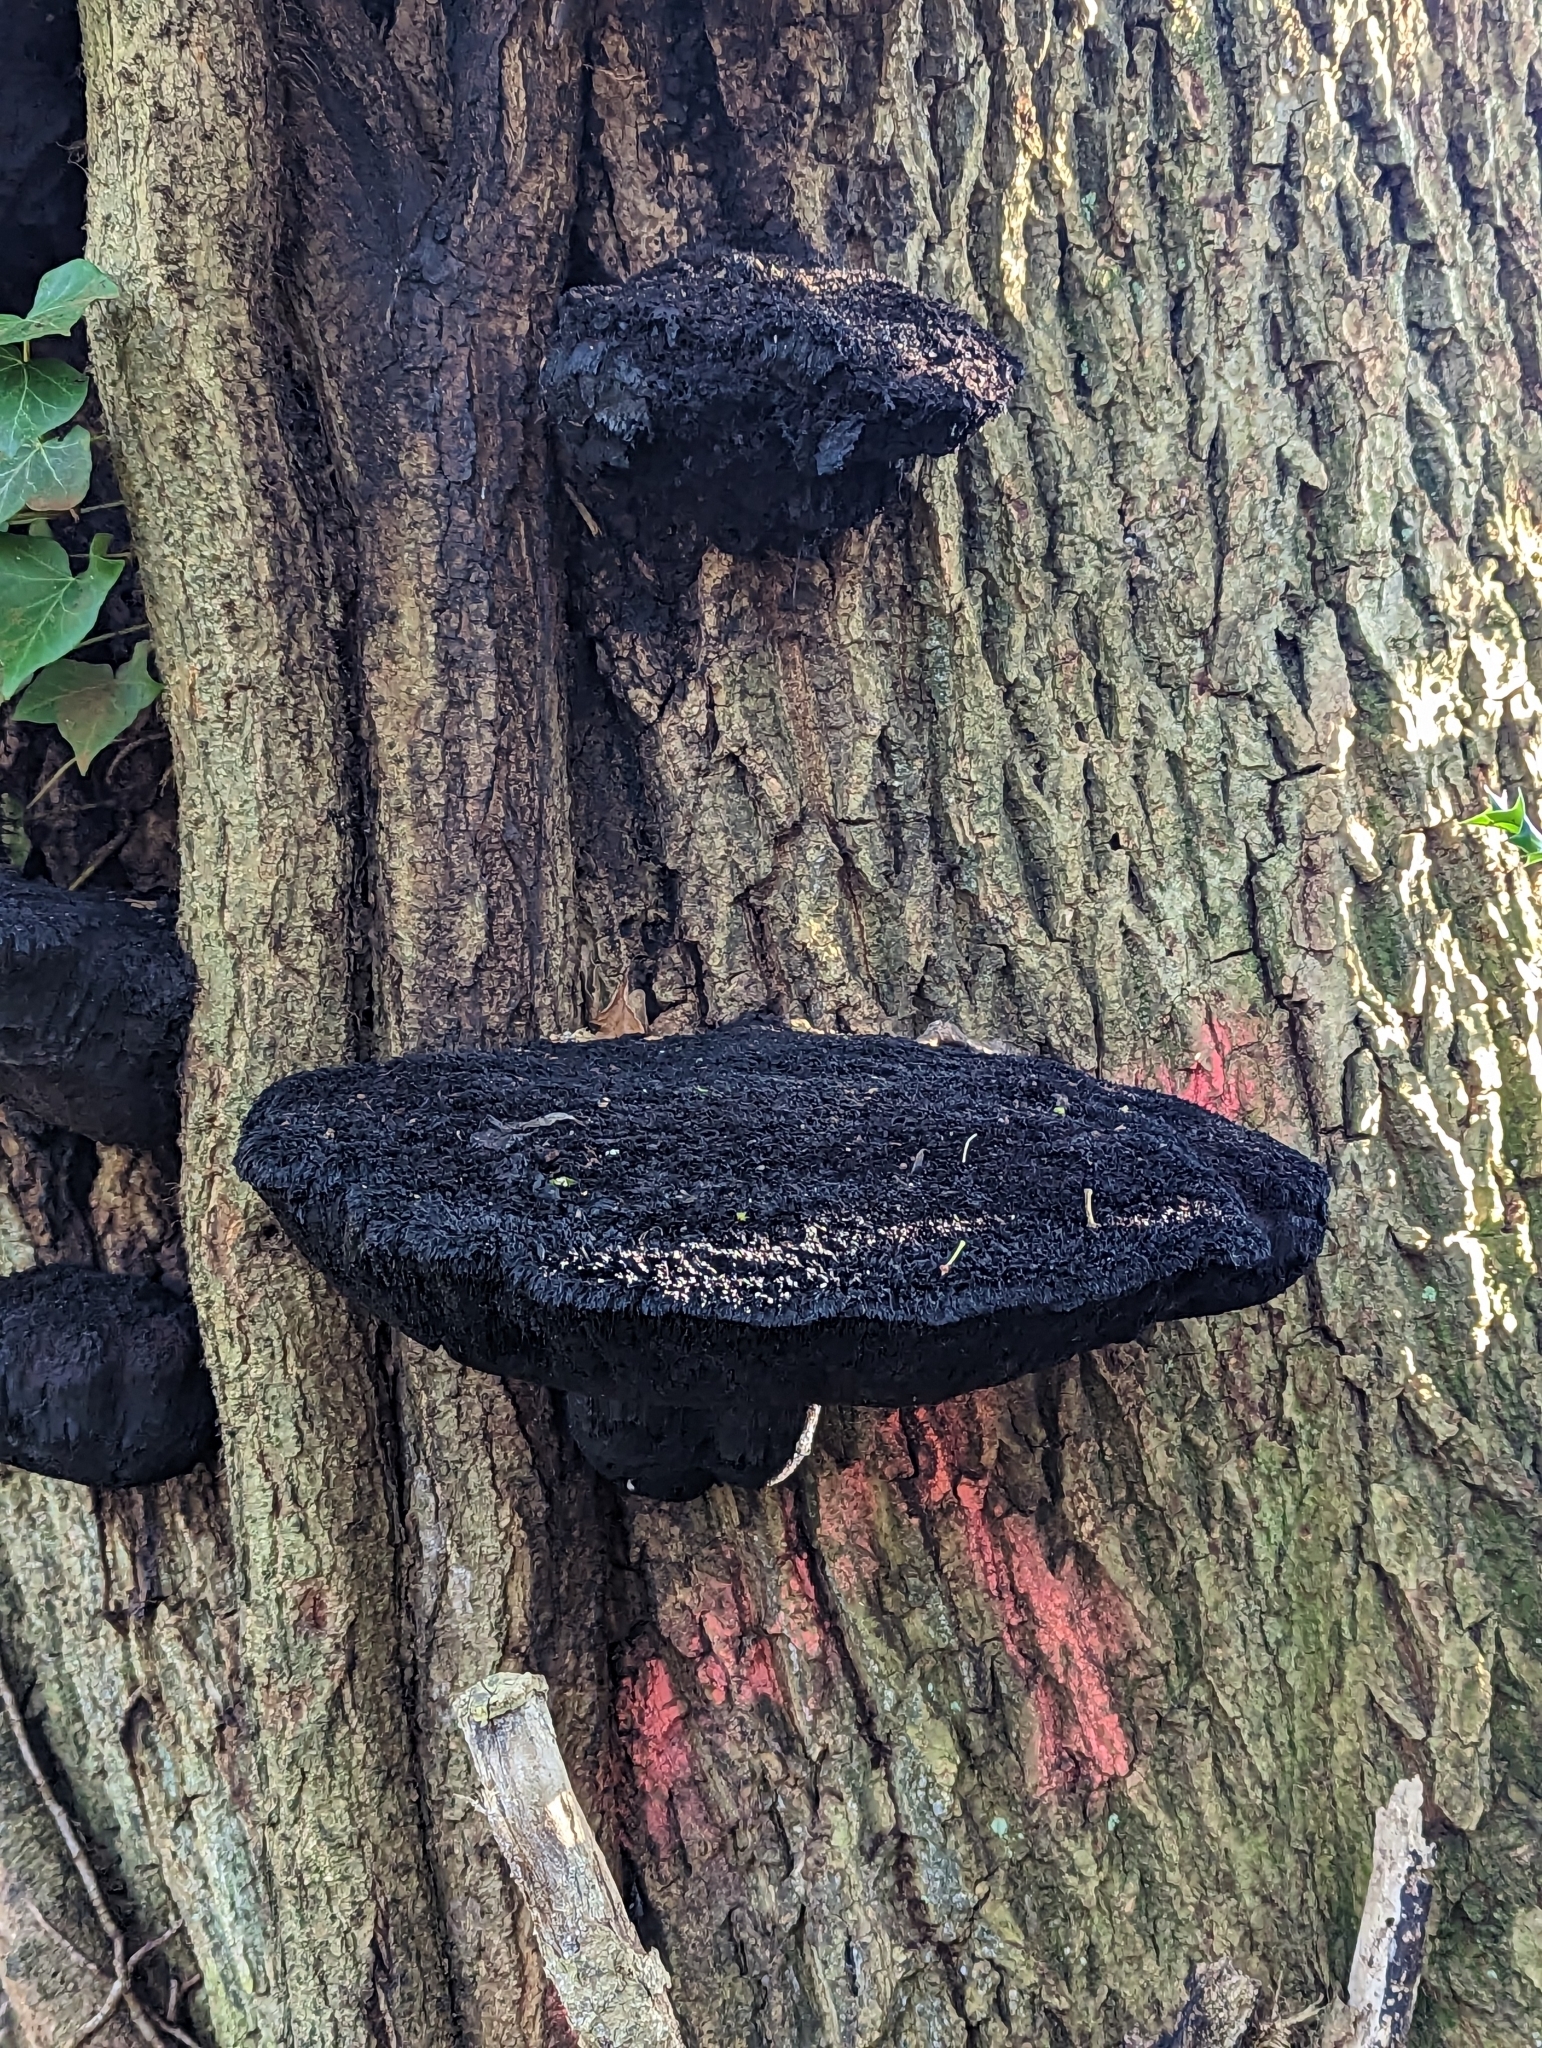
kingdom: Fungi
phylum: Basidiomycota
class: Agaricomycetes
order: Hymenochaetales
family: Hymenochaetaceae
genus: Inonotus
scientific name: Inonotus hispidus
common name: Shaggy bracket
